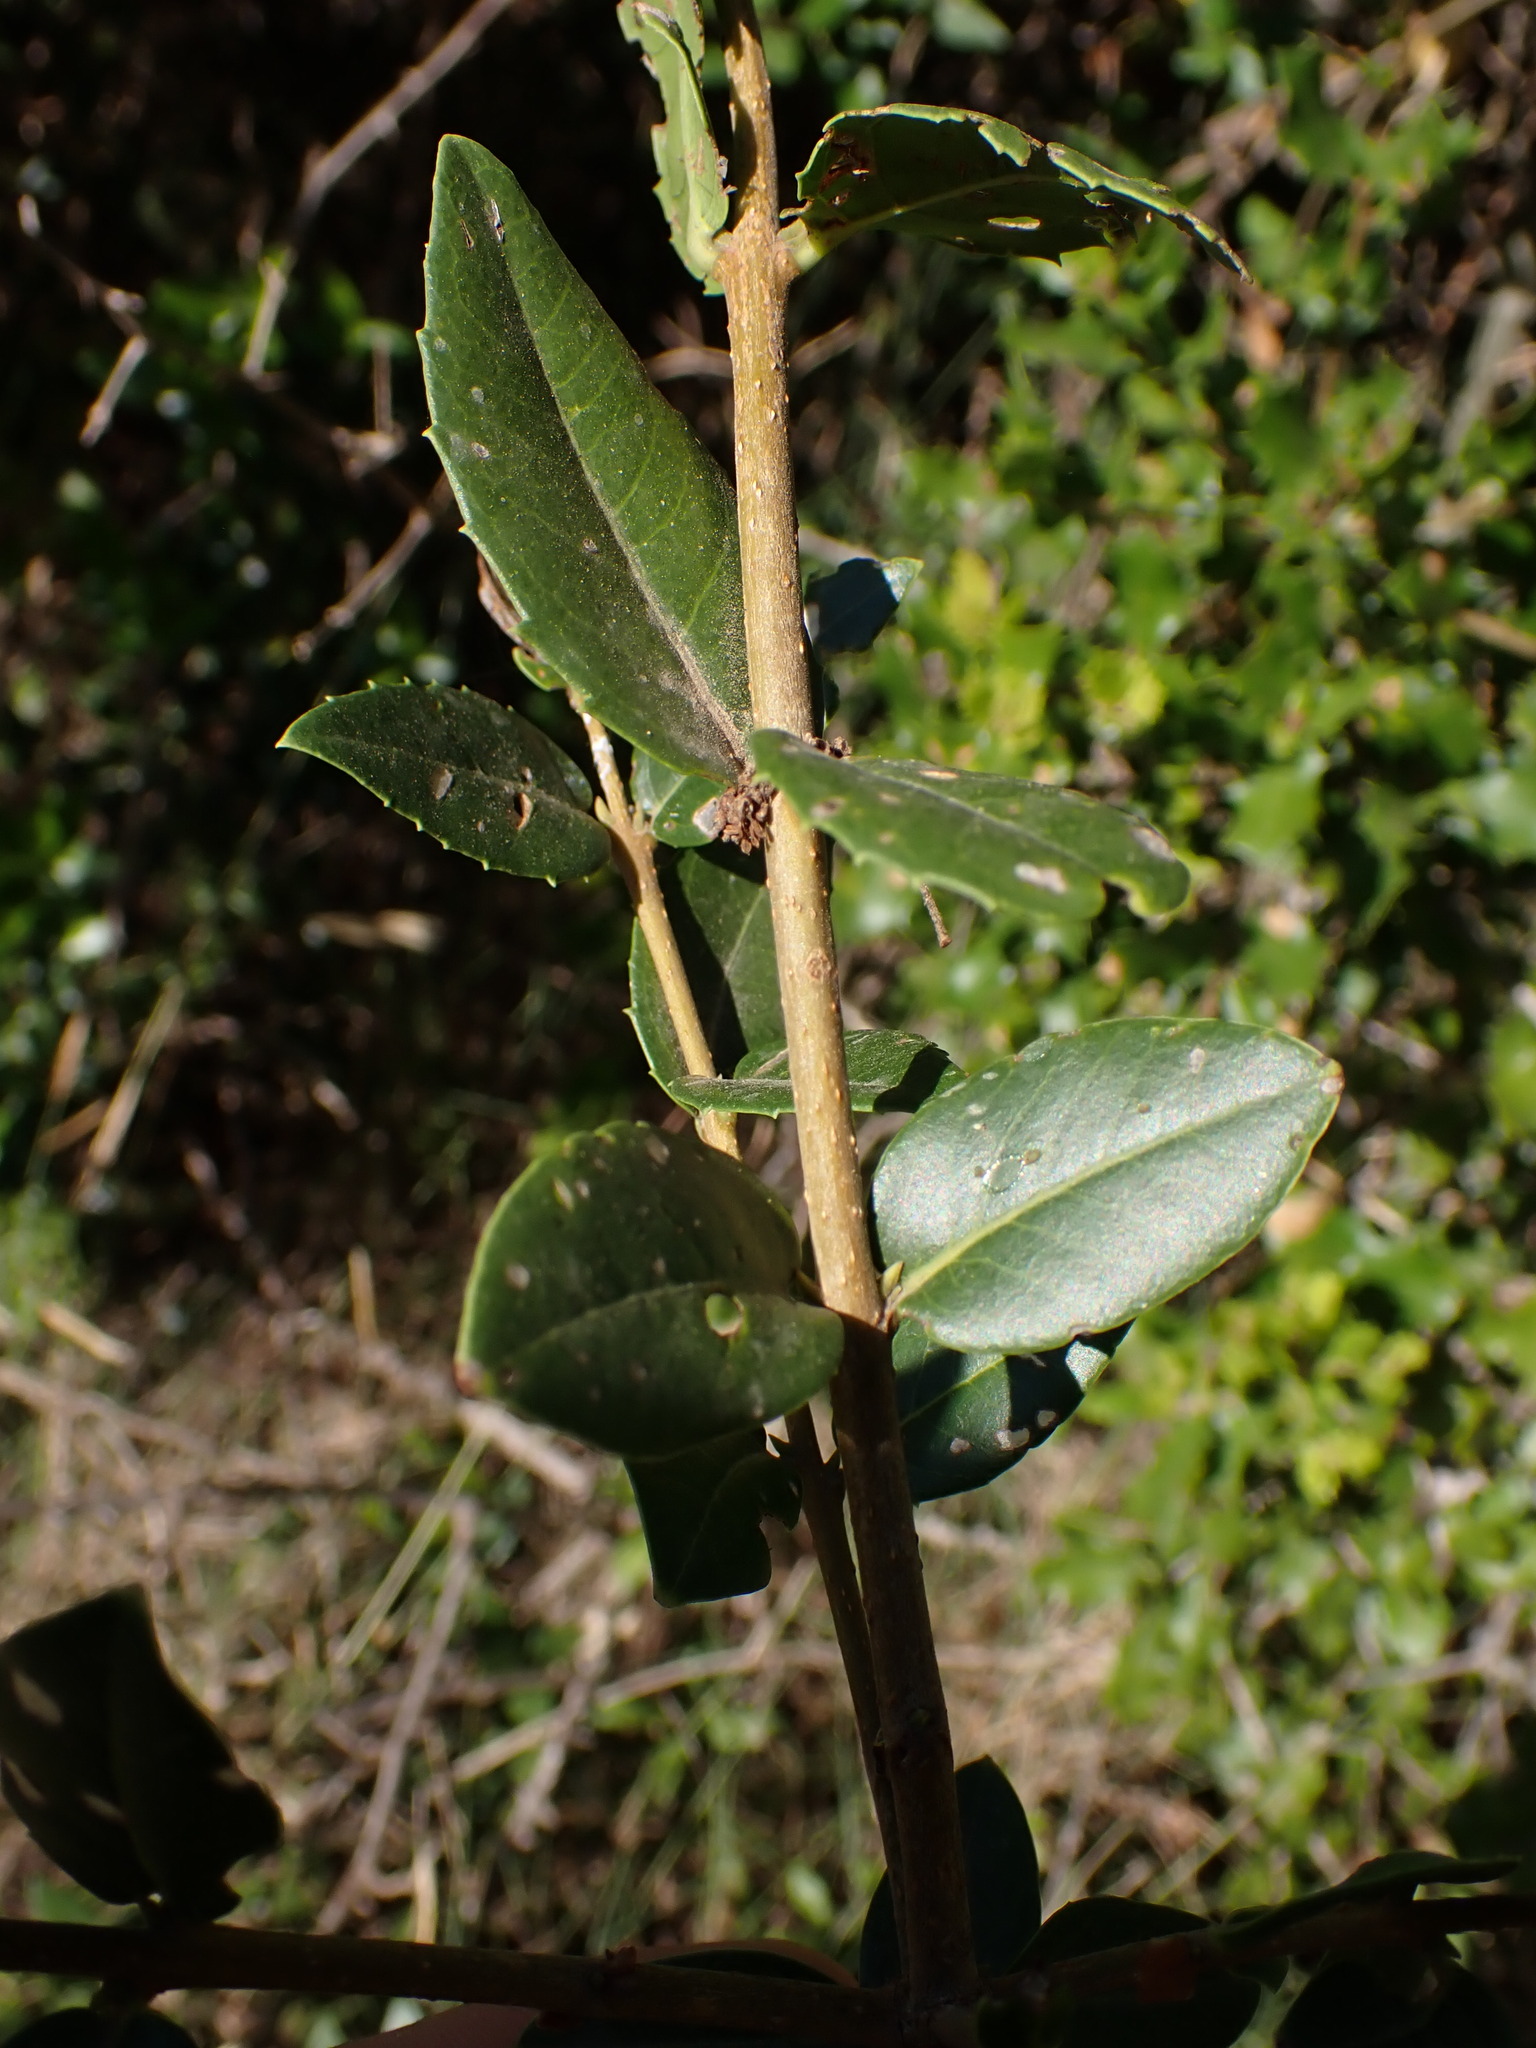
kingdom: Plantae
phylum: Tracheophyta
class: Magnoliopsida
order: Lamiales
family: Oleaceae
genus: Phillyrea
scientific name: Phillyrea latifolia
